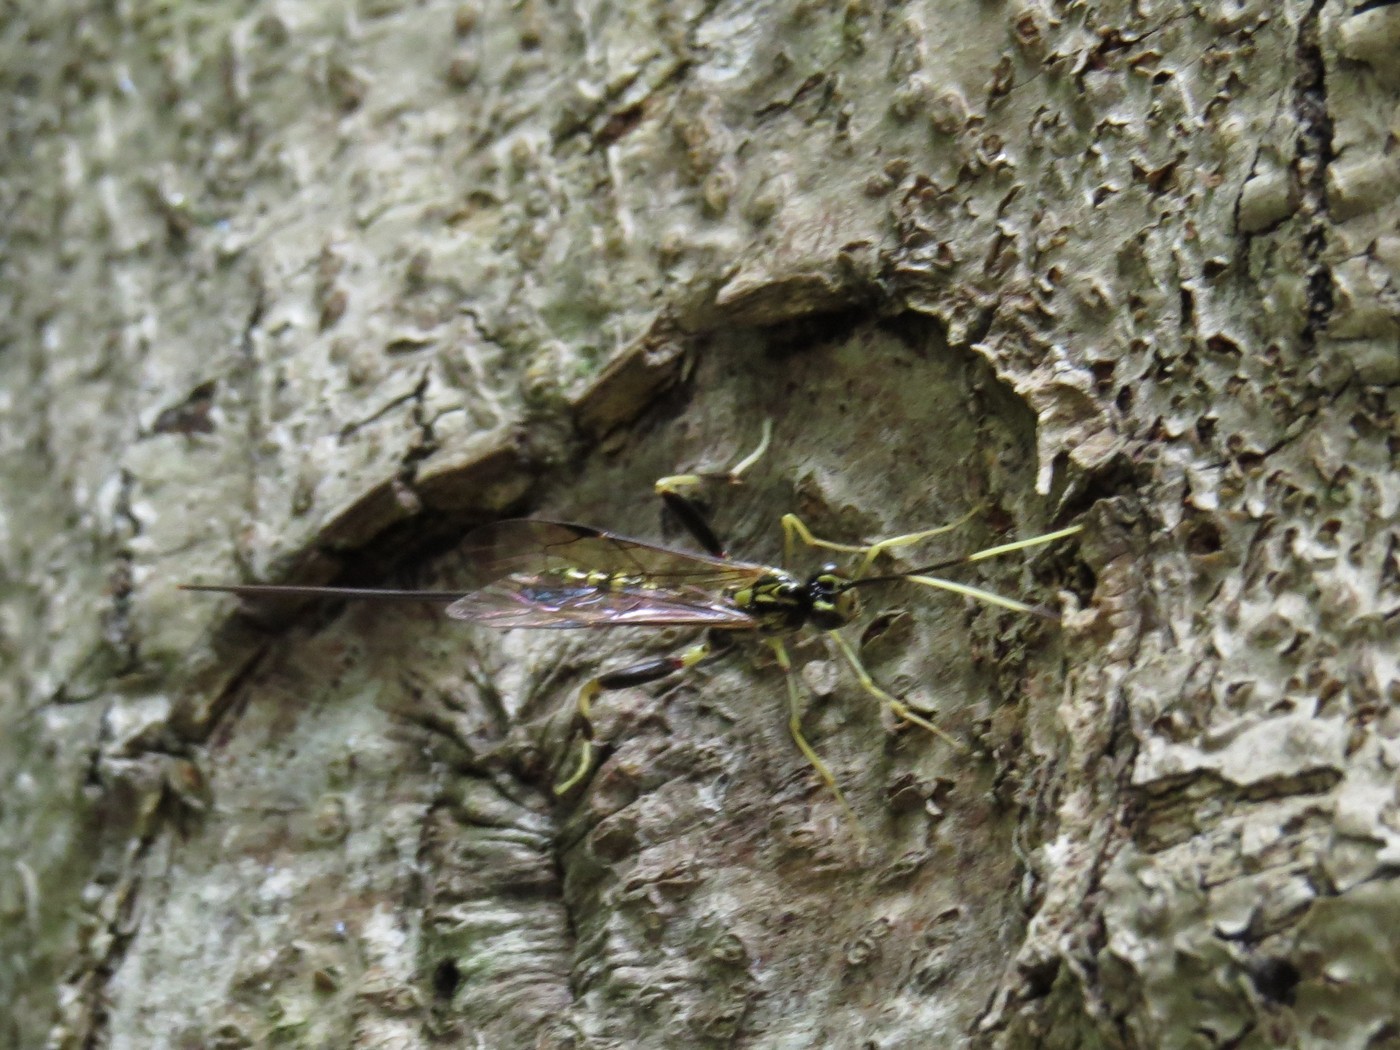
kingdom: Animalia
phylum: Arthropoda
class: Insecta
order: Hymenoptera
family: Ichneumonidae
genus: Arotes
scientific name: Arotes amoenus
